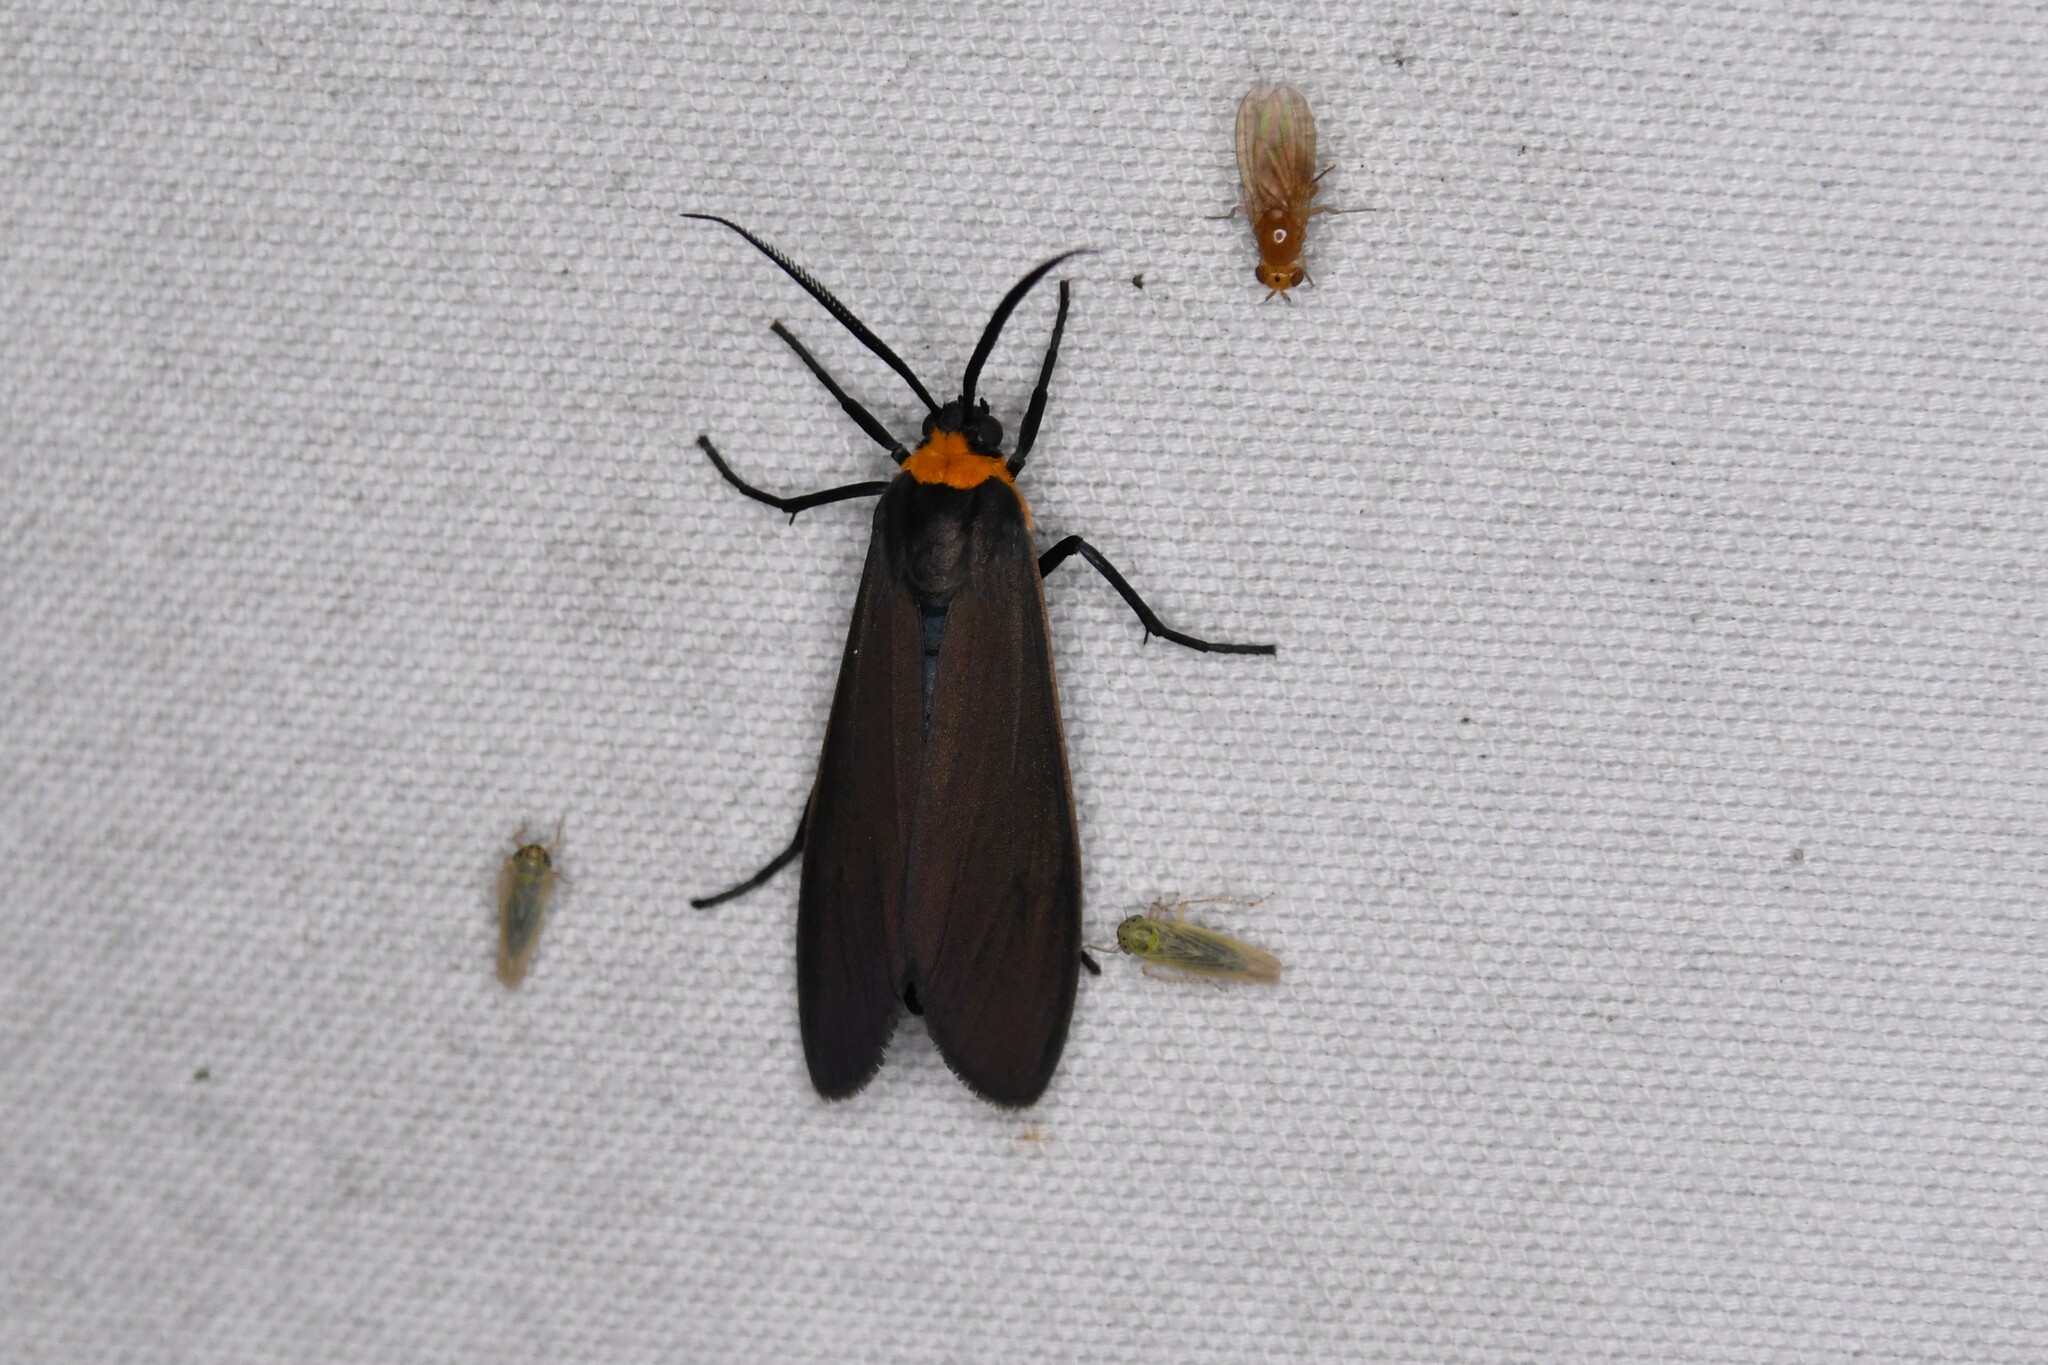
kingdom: Animalia
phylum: Arthropoda
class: Insecta
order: Lepidoptera
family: Erebidae
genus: Cisseps
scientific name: Cisseps fulvicollis
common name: Yellow-collared scape moth
